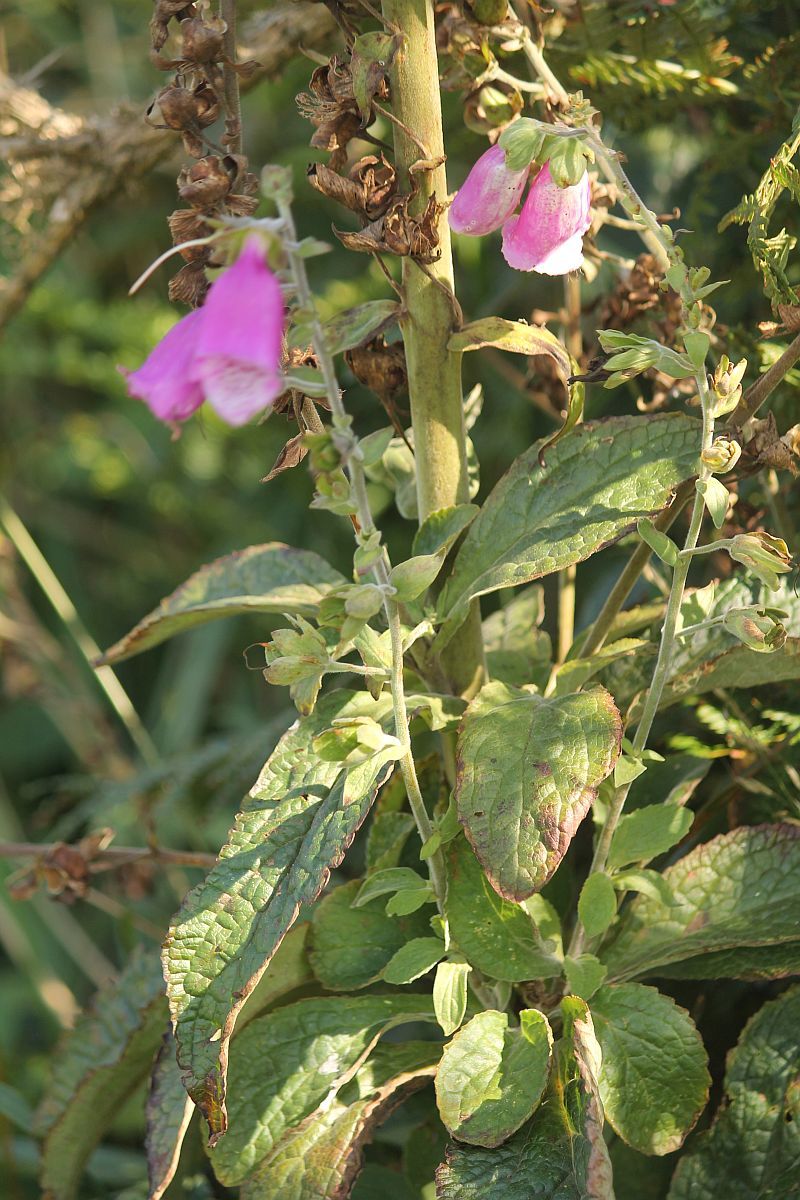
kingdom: Plantae
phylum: Tracheophyta
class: Magnoliopsida
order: Lamiales
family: Plantaginaceae
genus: Digitalis
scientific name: Digitalis purpurea
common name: Foxglove
